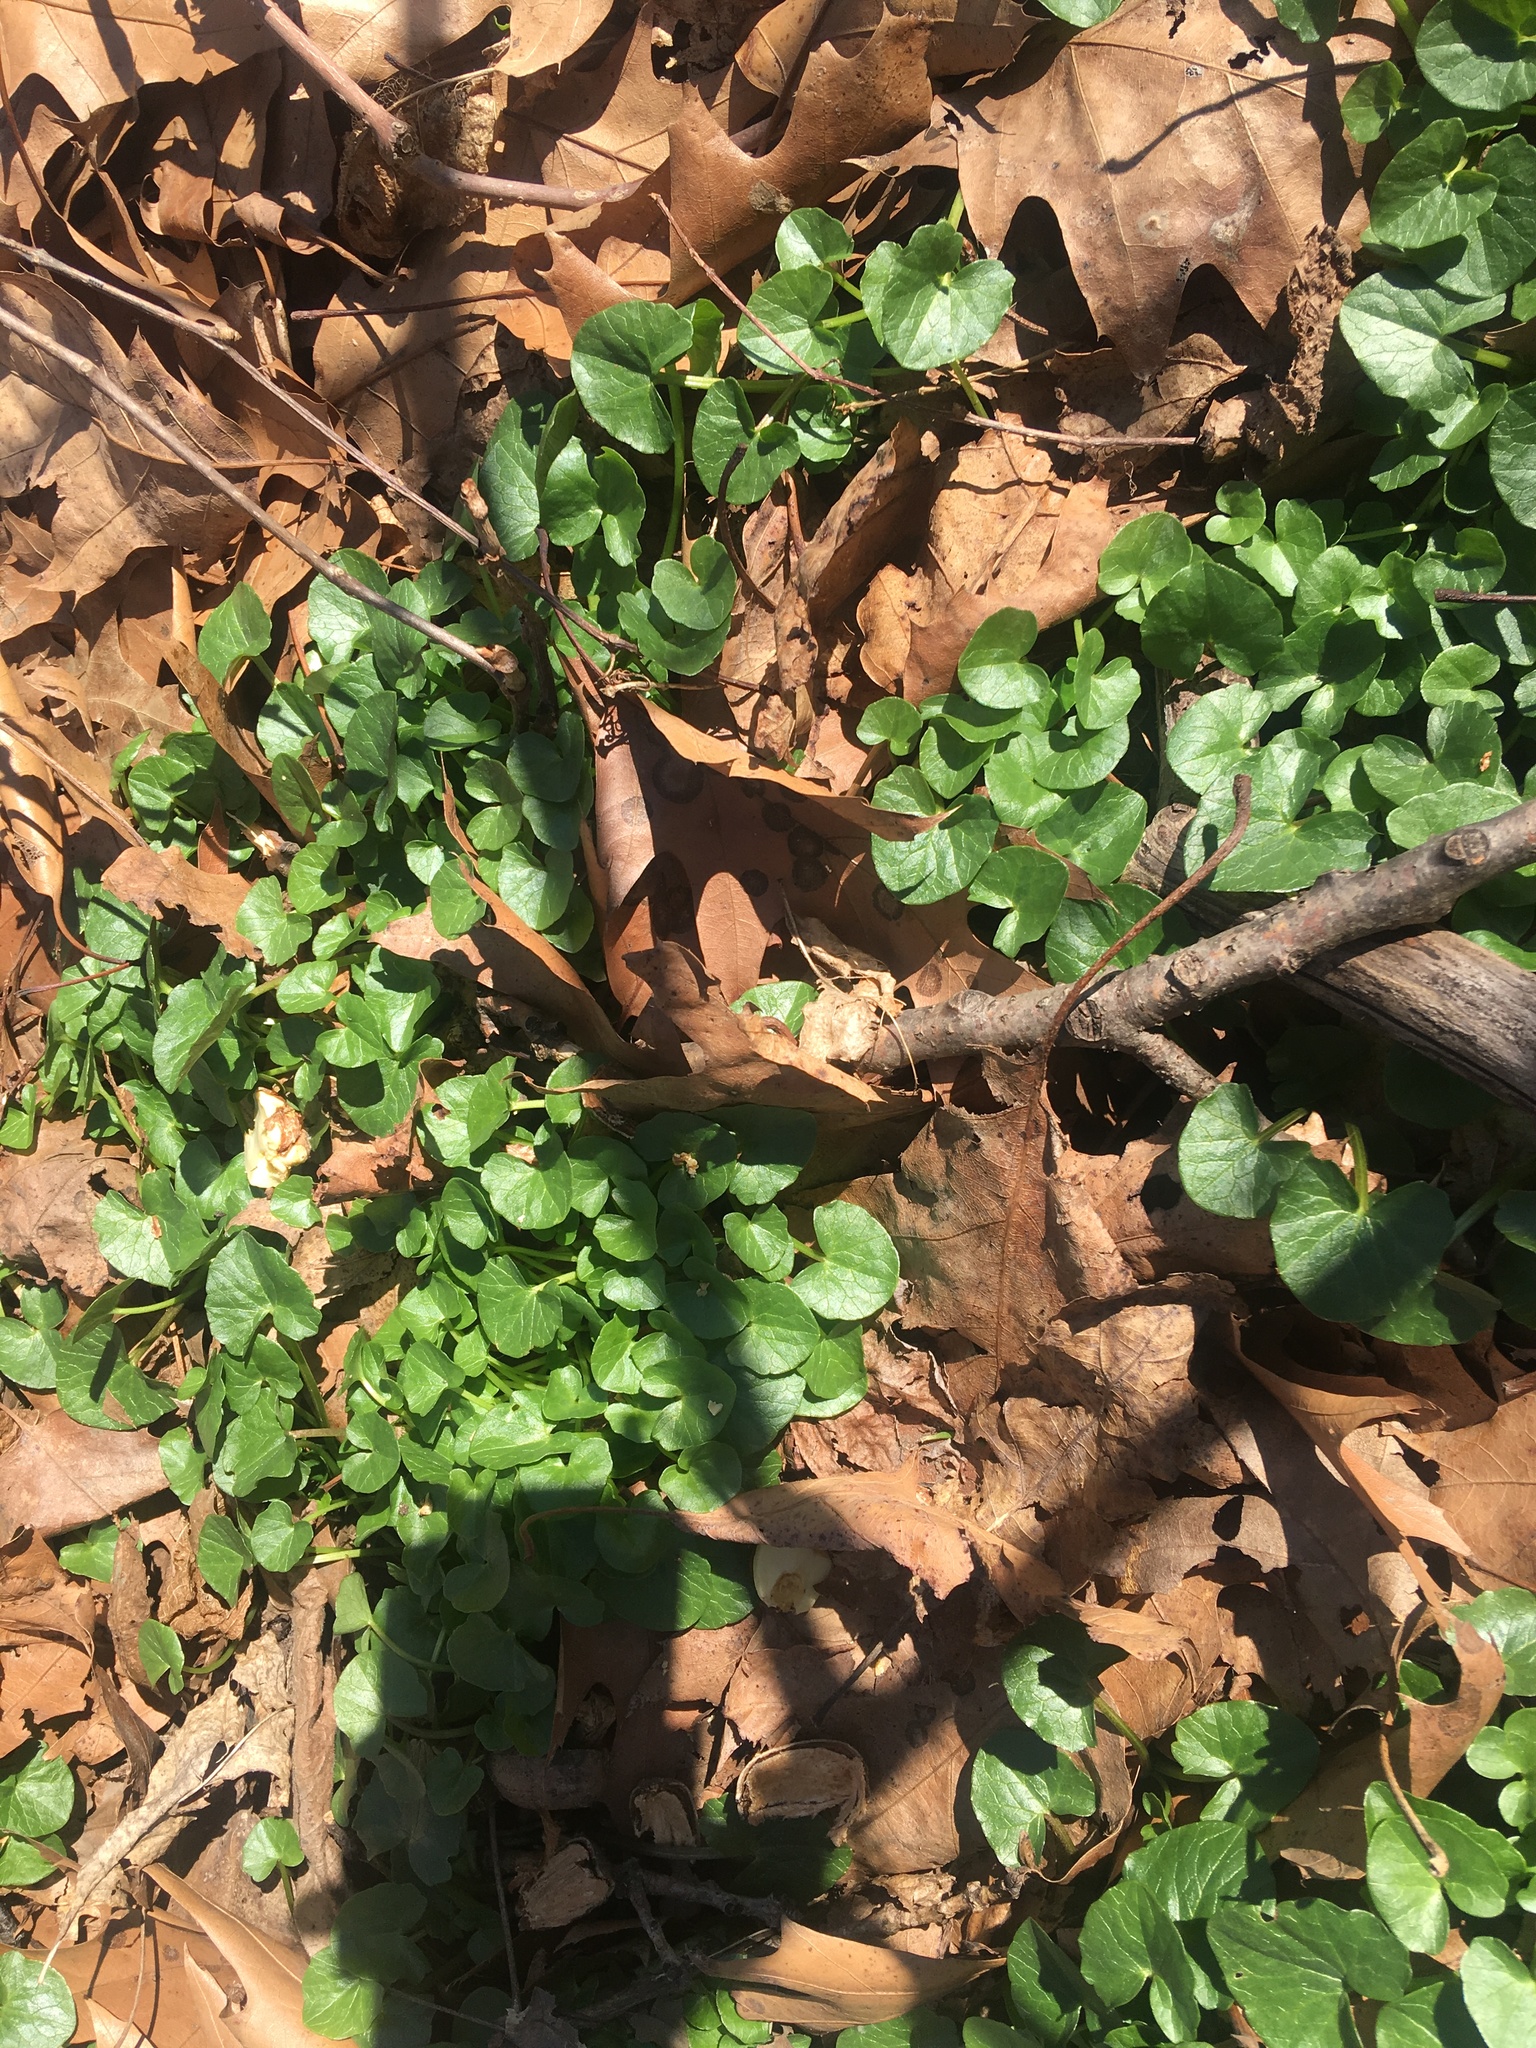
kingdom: Plantae
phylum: Tracheophyta
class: Magnoliopsida
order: Ranunculales
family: Ranunculaceae
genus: Ficaria
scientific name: Ficaria verna
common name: Lesser celandine
